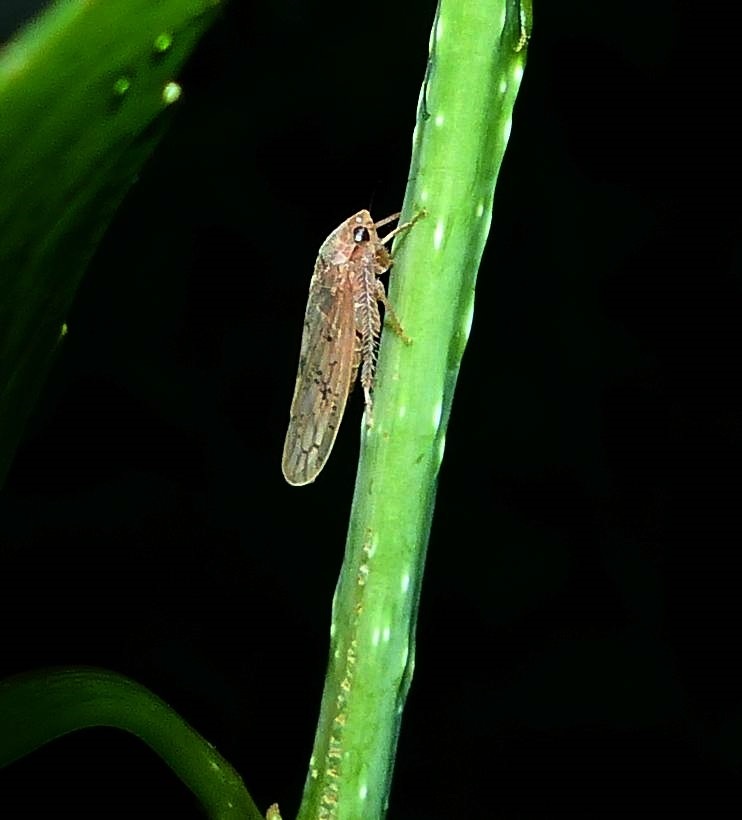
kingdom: Animalia
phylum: Arthropoda
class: Insecta
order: Hemiptera
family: Cicadellidae
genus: Ponana
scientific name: Ponana rubida
